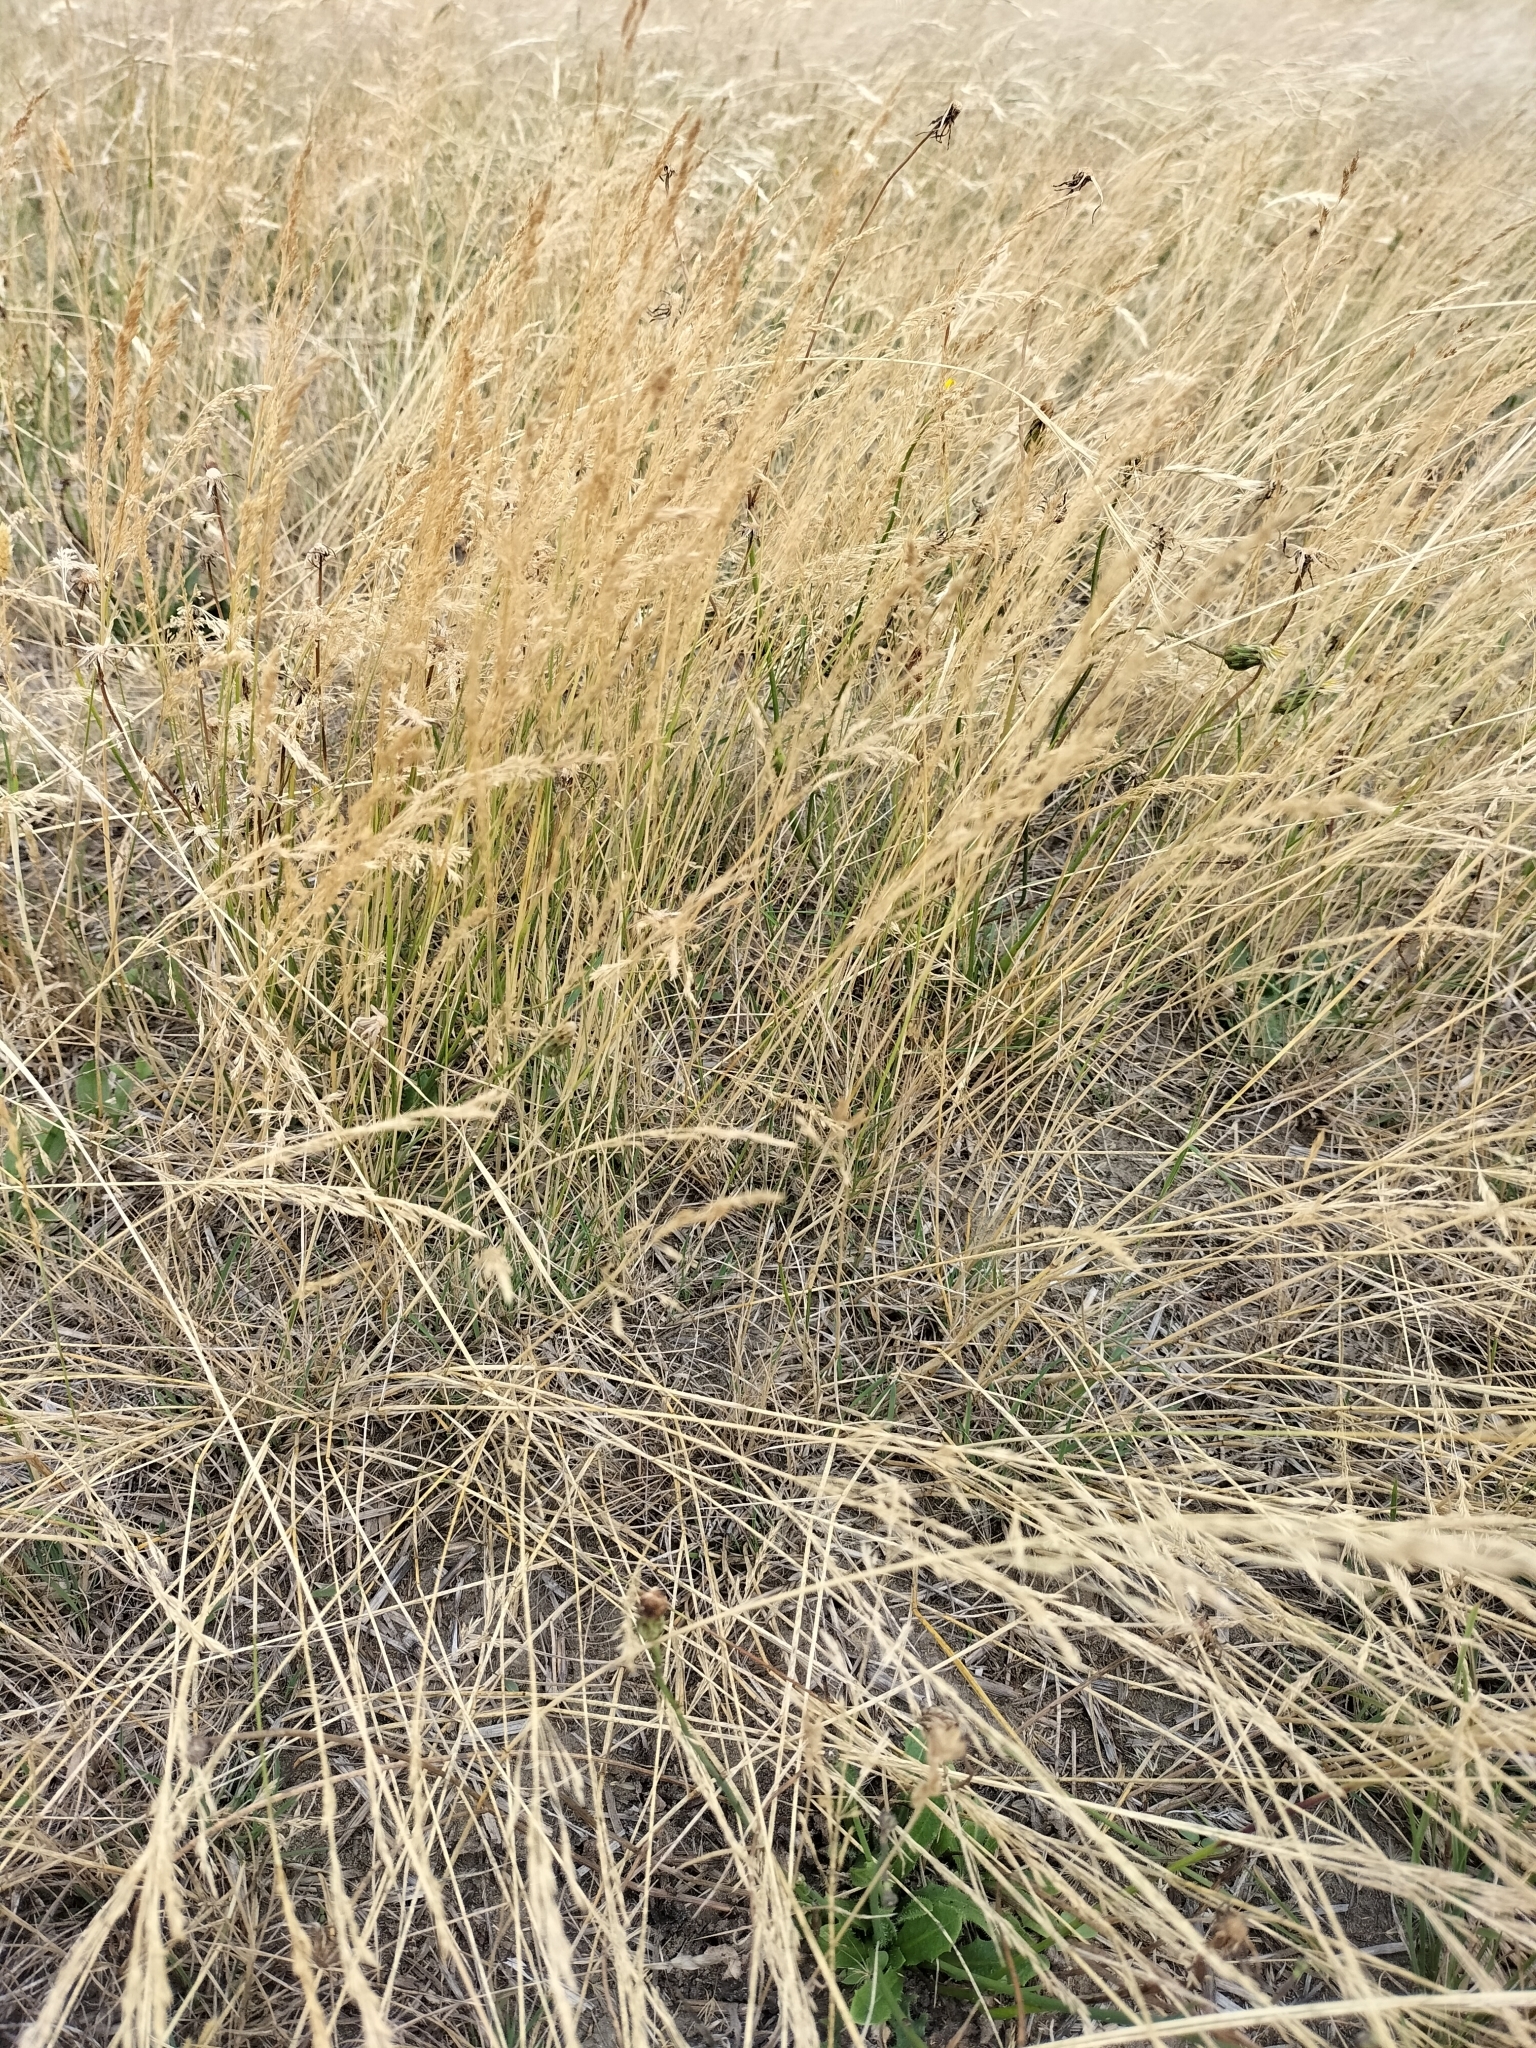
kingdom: Plantae
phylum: Tracheophyta
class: Liliopsida
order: Poales
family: Poaceae
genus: Agrostis
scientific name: Agrostis capillaris
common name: Colonial bentgrass
